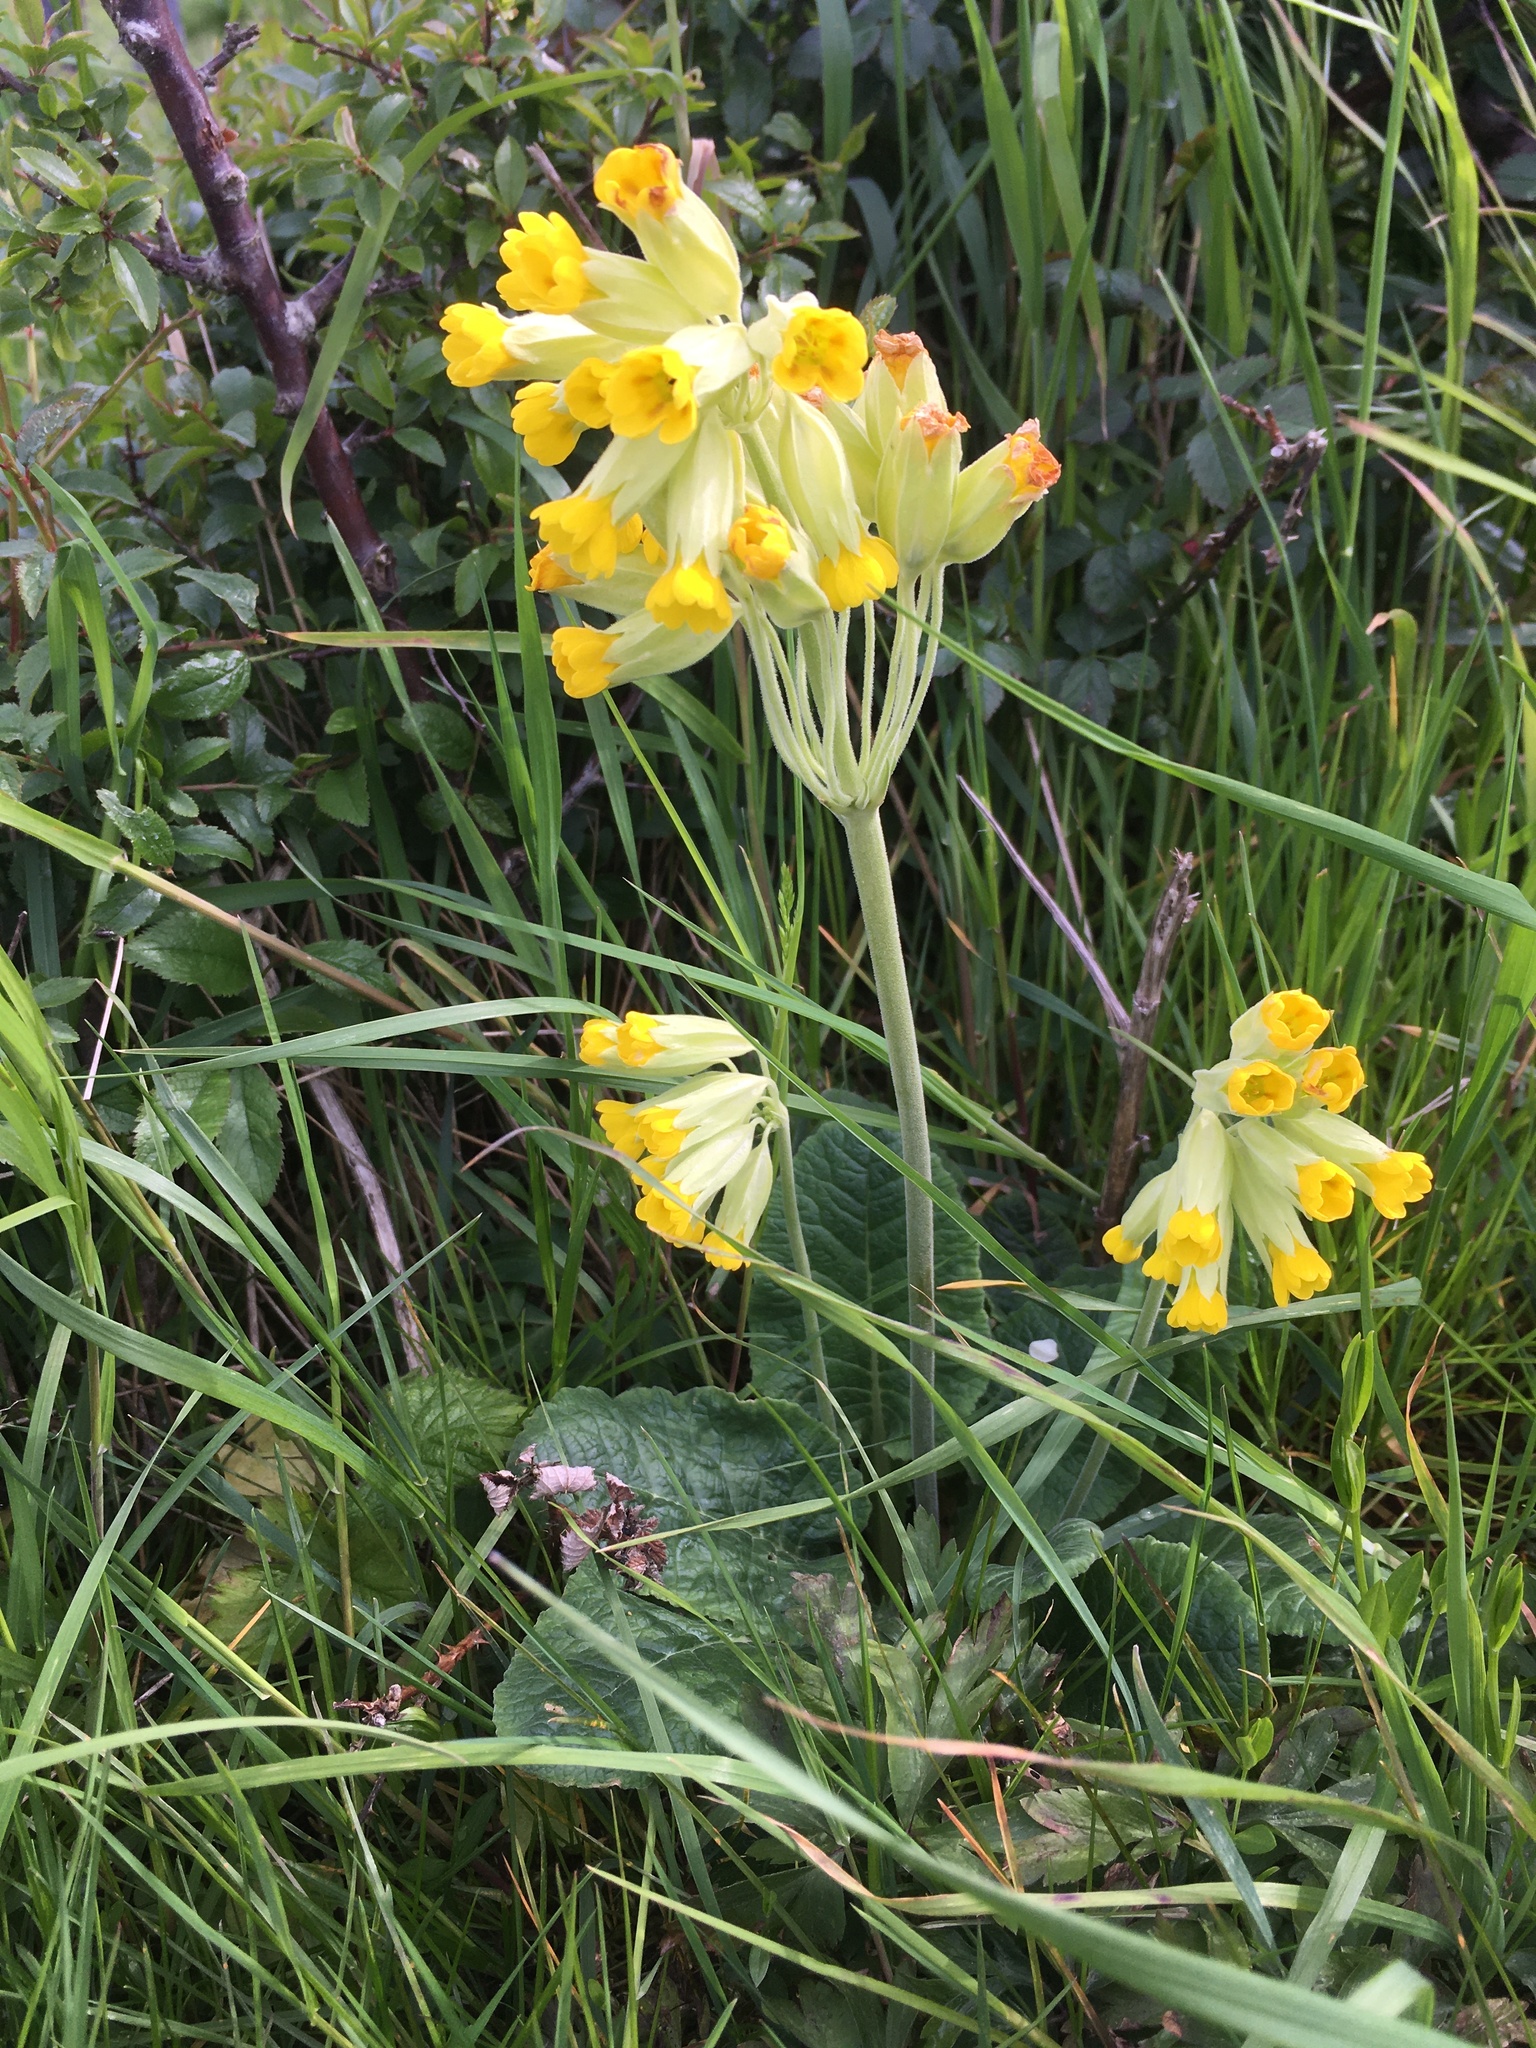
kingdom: Plantae
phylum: Tracheophyta
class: Magnoliopsida
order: Ericales
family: Primulaceae
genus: Primula
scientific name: Primula veris
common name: Cowslip
